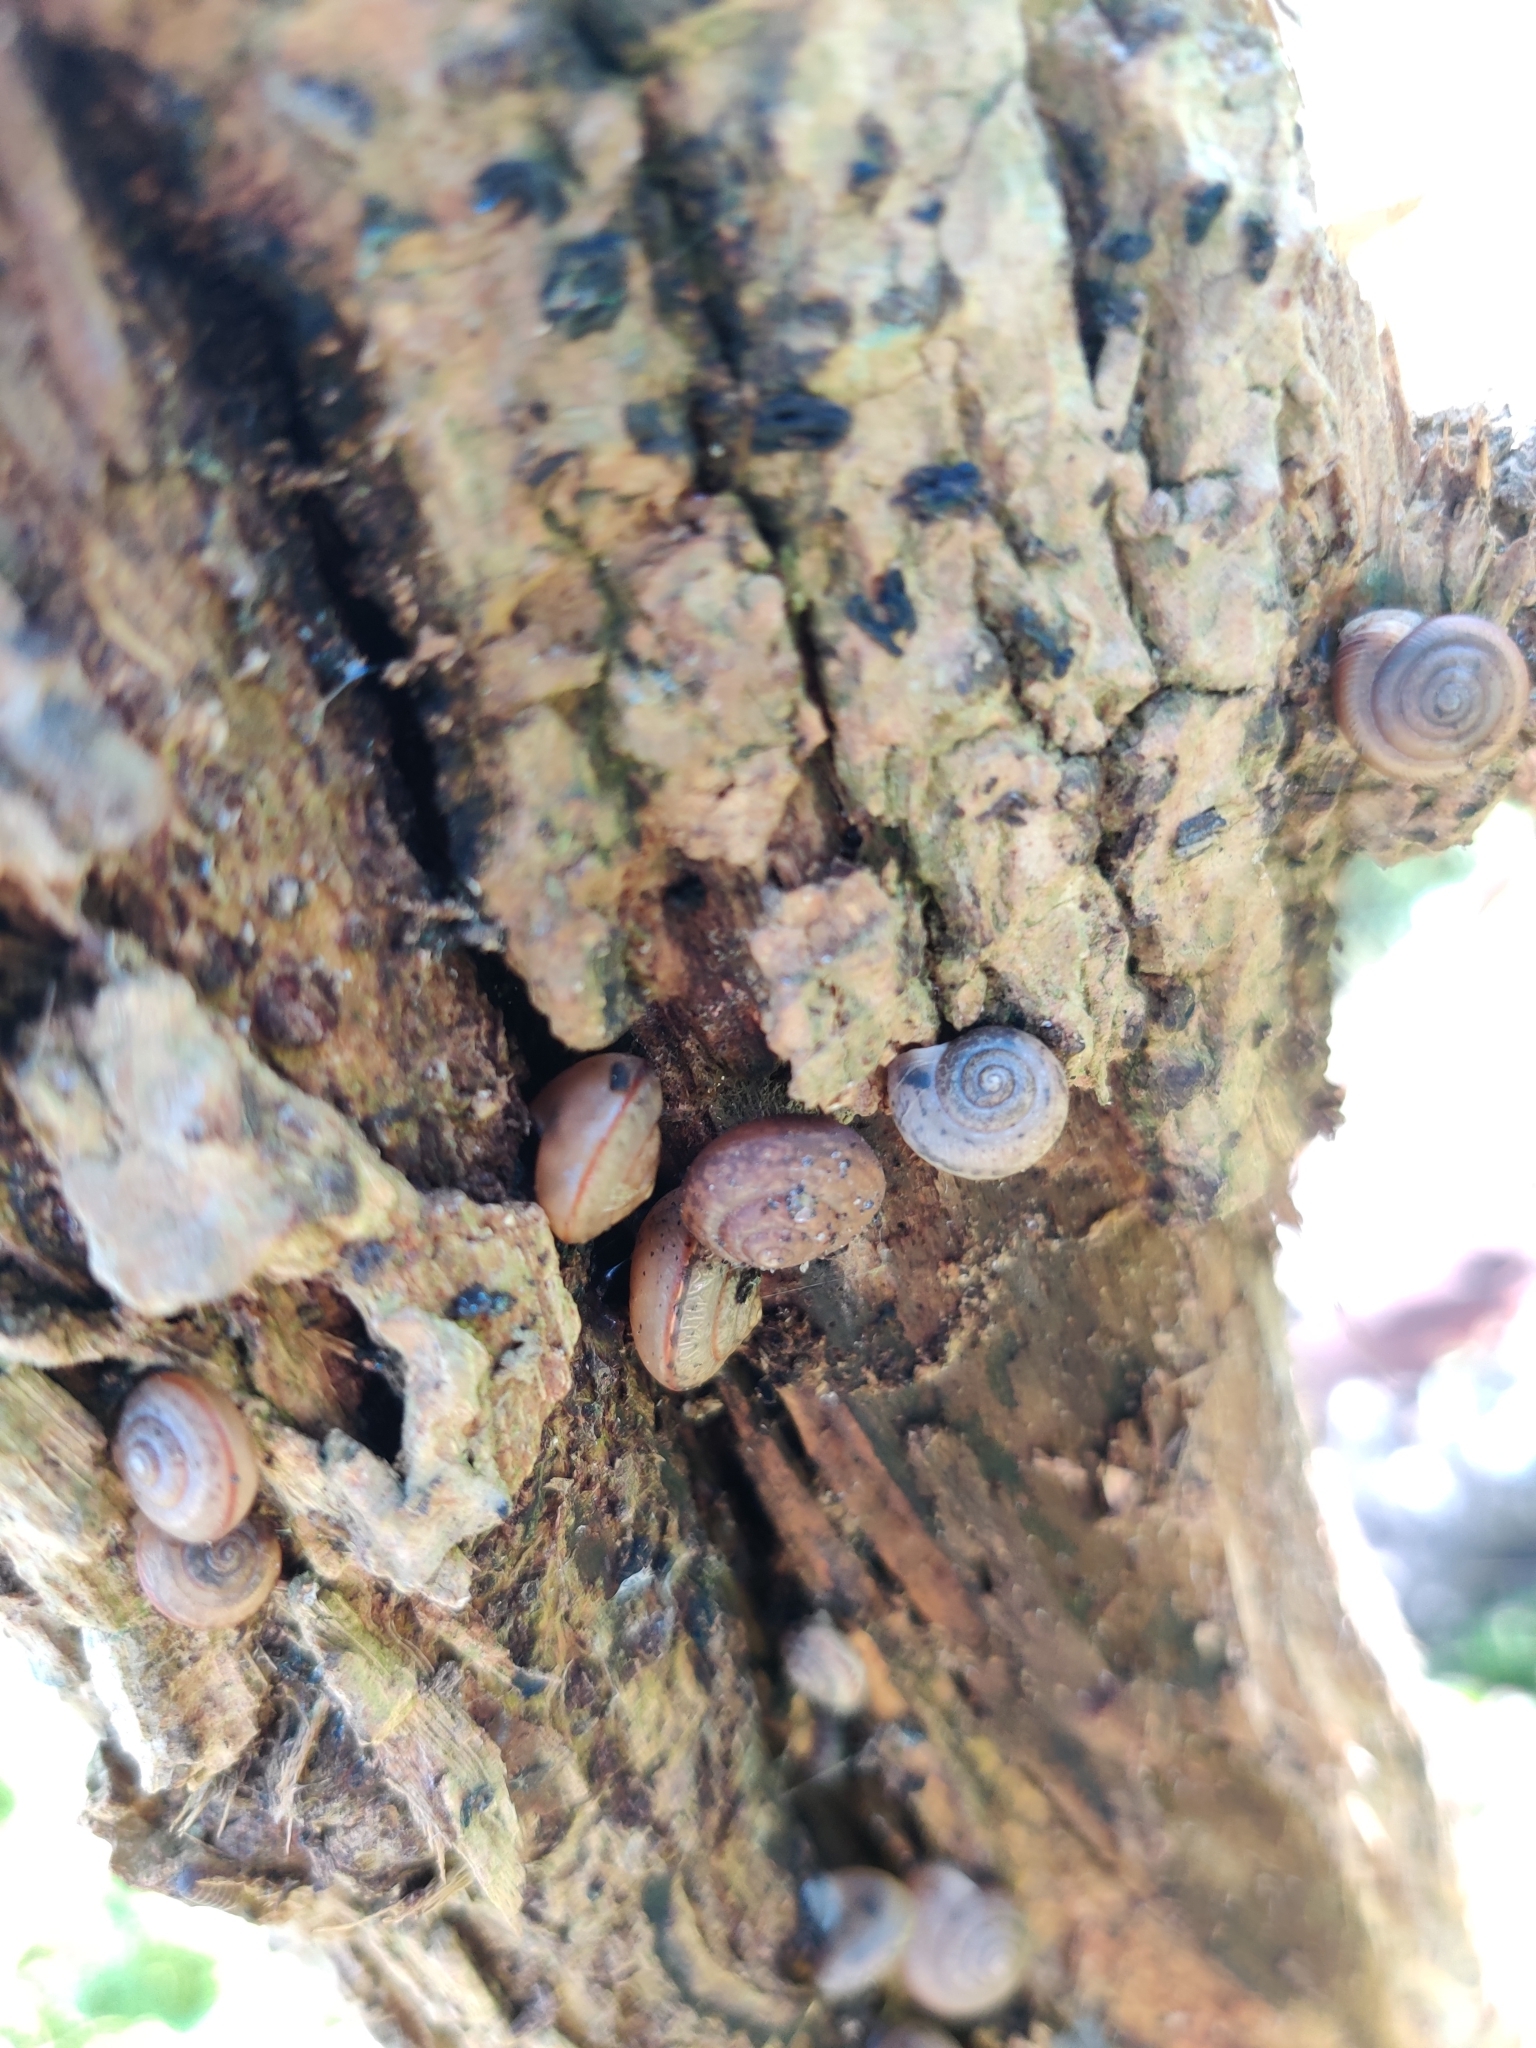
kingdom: Animalia
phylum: Mollusca
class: Gastropoda
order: Stylommatophora
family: Camaenidae
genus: Bradybaena
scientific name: Bradybaena similaris
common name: Asian trampsnail
